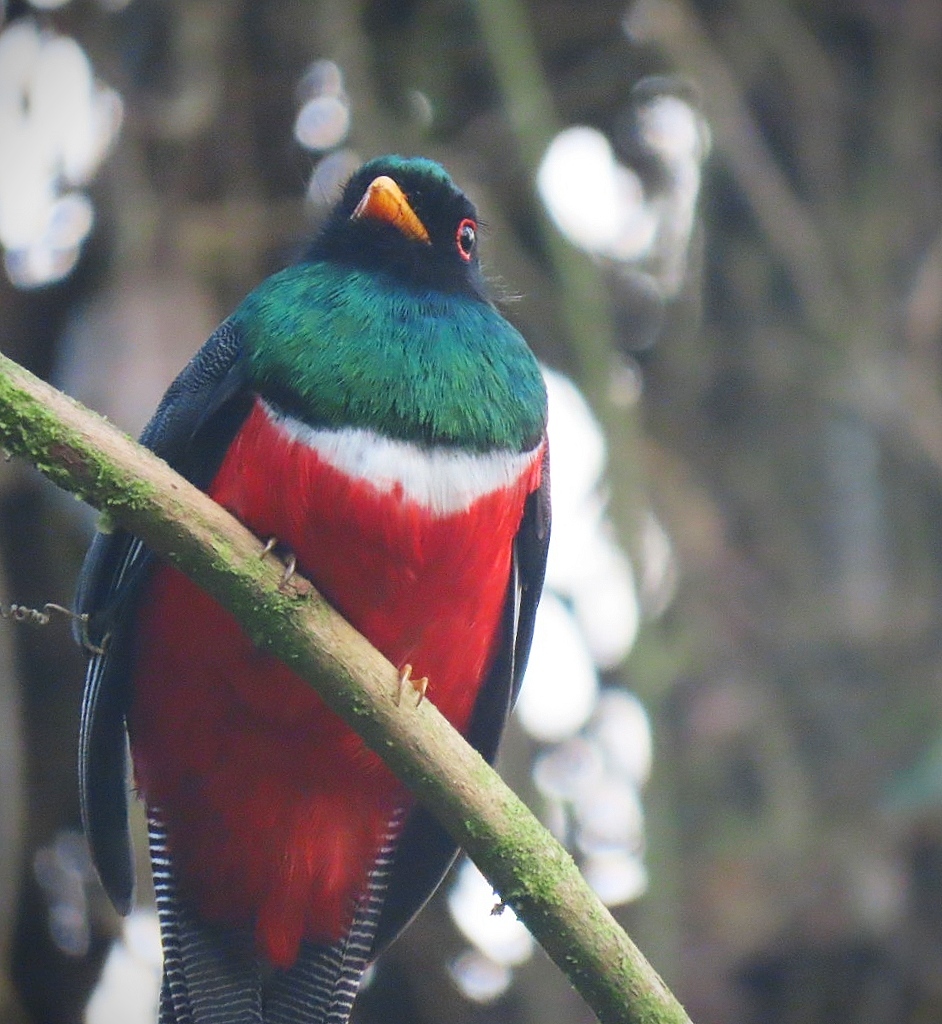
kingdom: Animalia
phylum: Chordata
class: Aves
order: Trogoniformes
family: Trogonidae
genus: Trogon
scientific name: Trogon collaris
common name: Collared trogon
